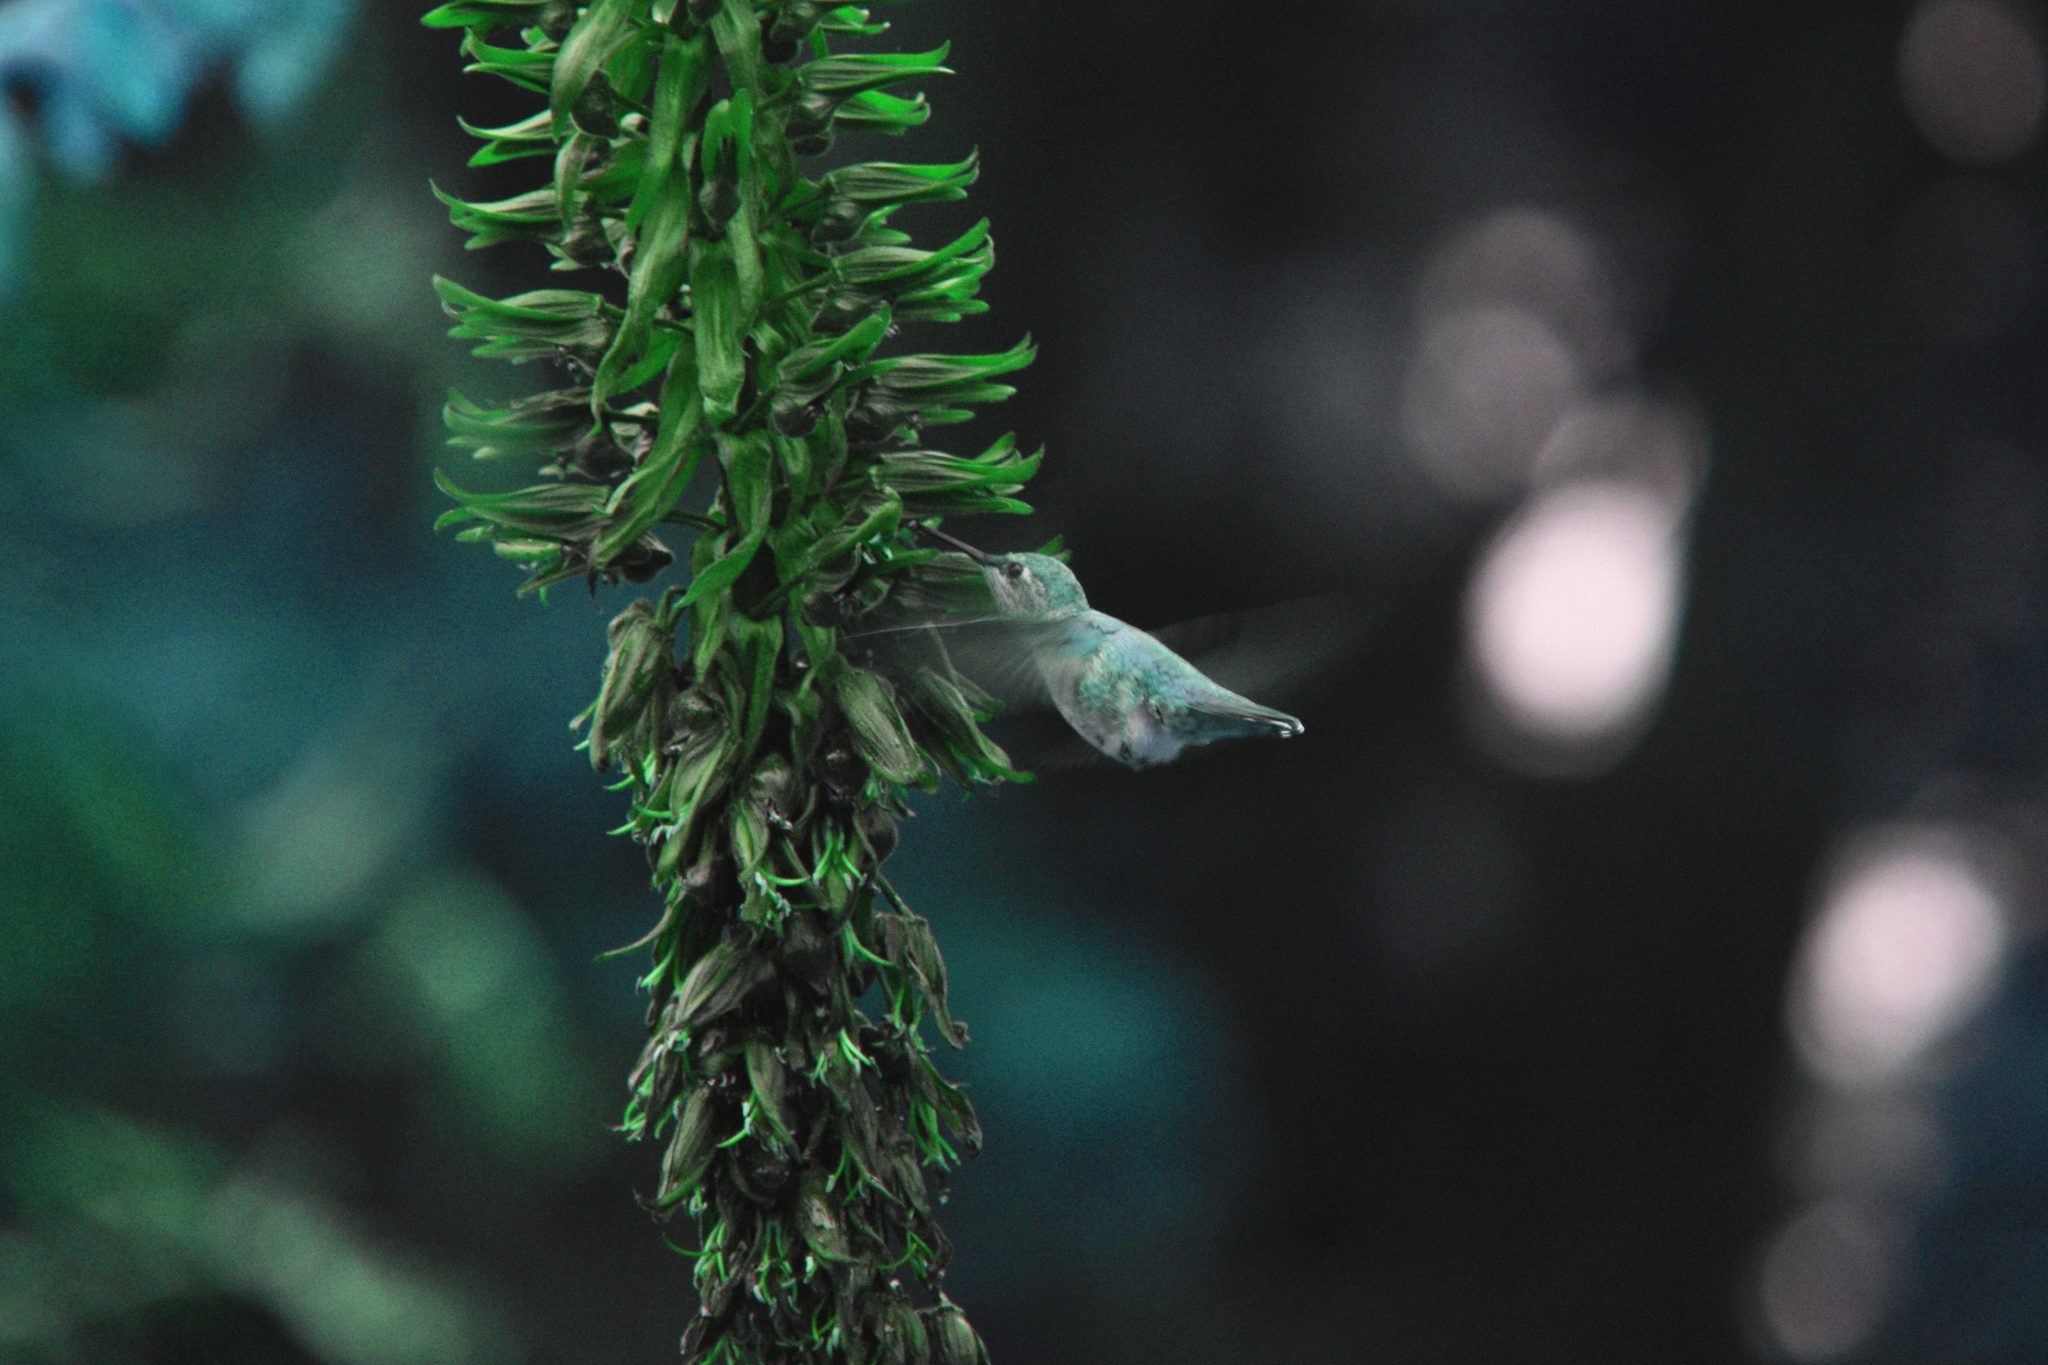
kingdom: Animalia
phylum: Chordata
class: Aves
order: Apodiformes
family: Trochilidae
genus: Calypte
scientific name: Calypte anna
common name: Anna's hummingbird
